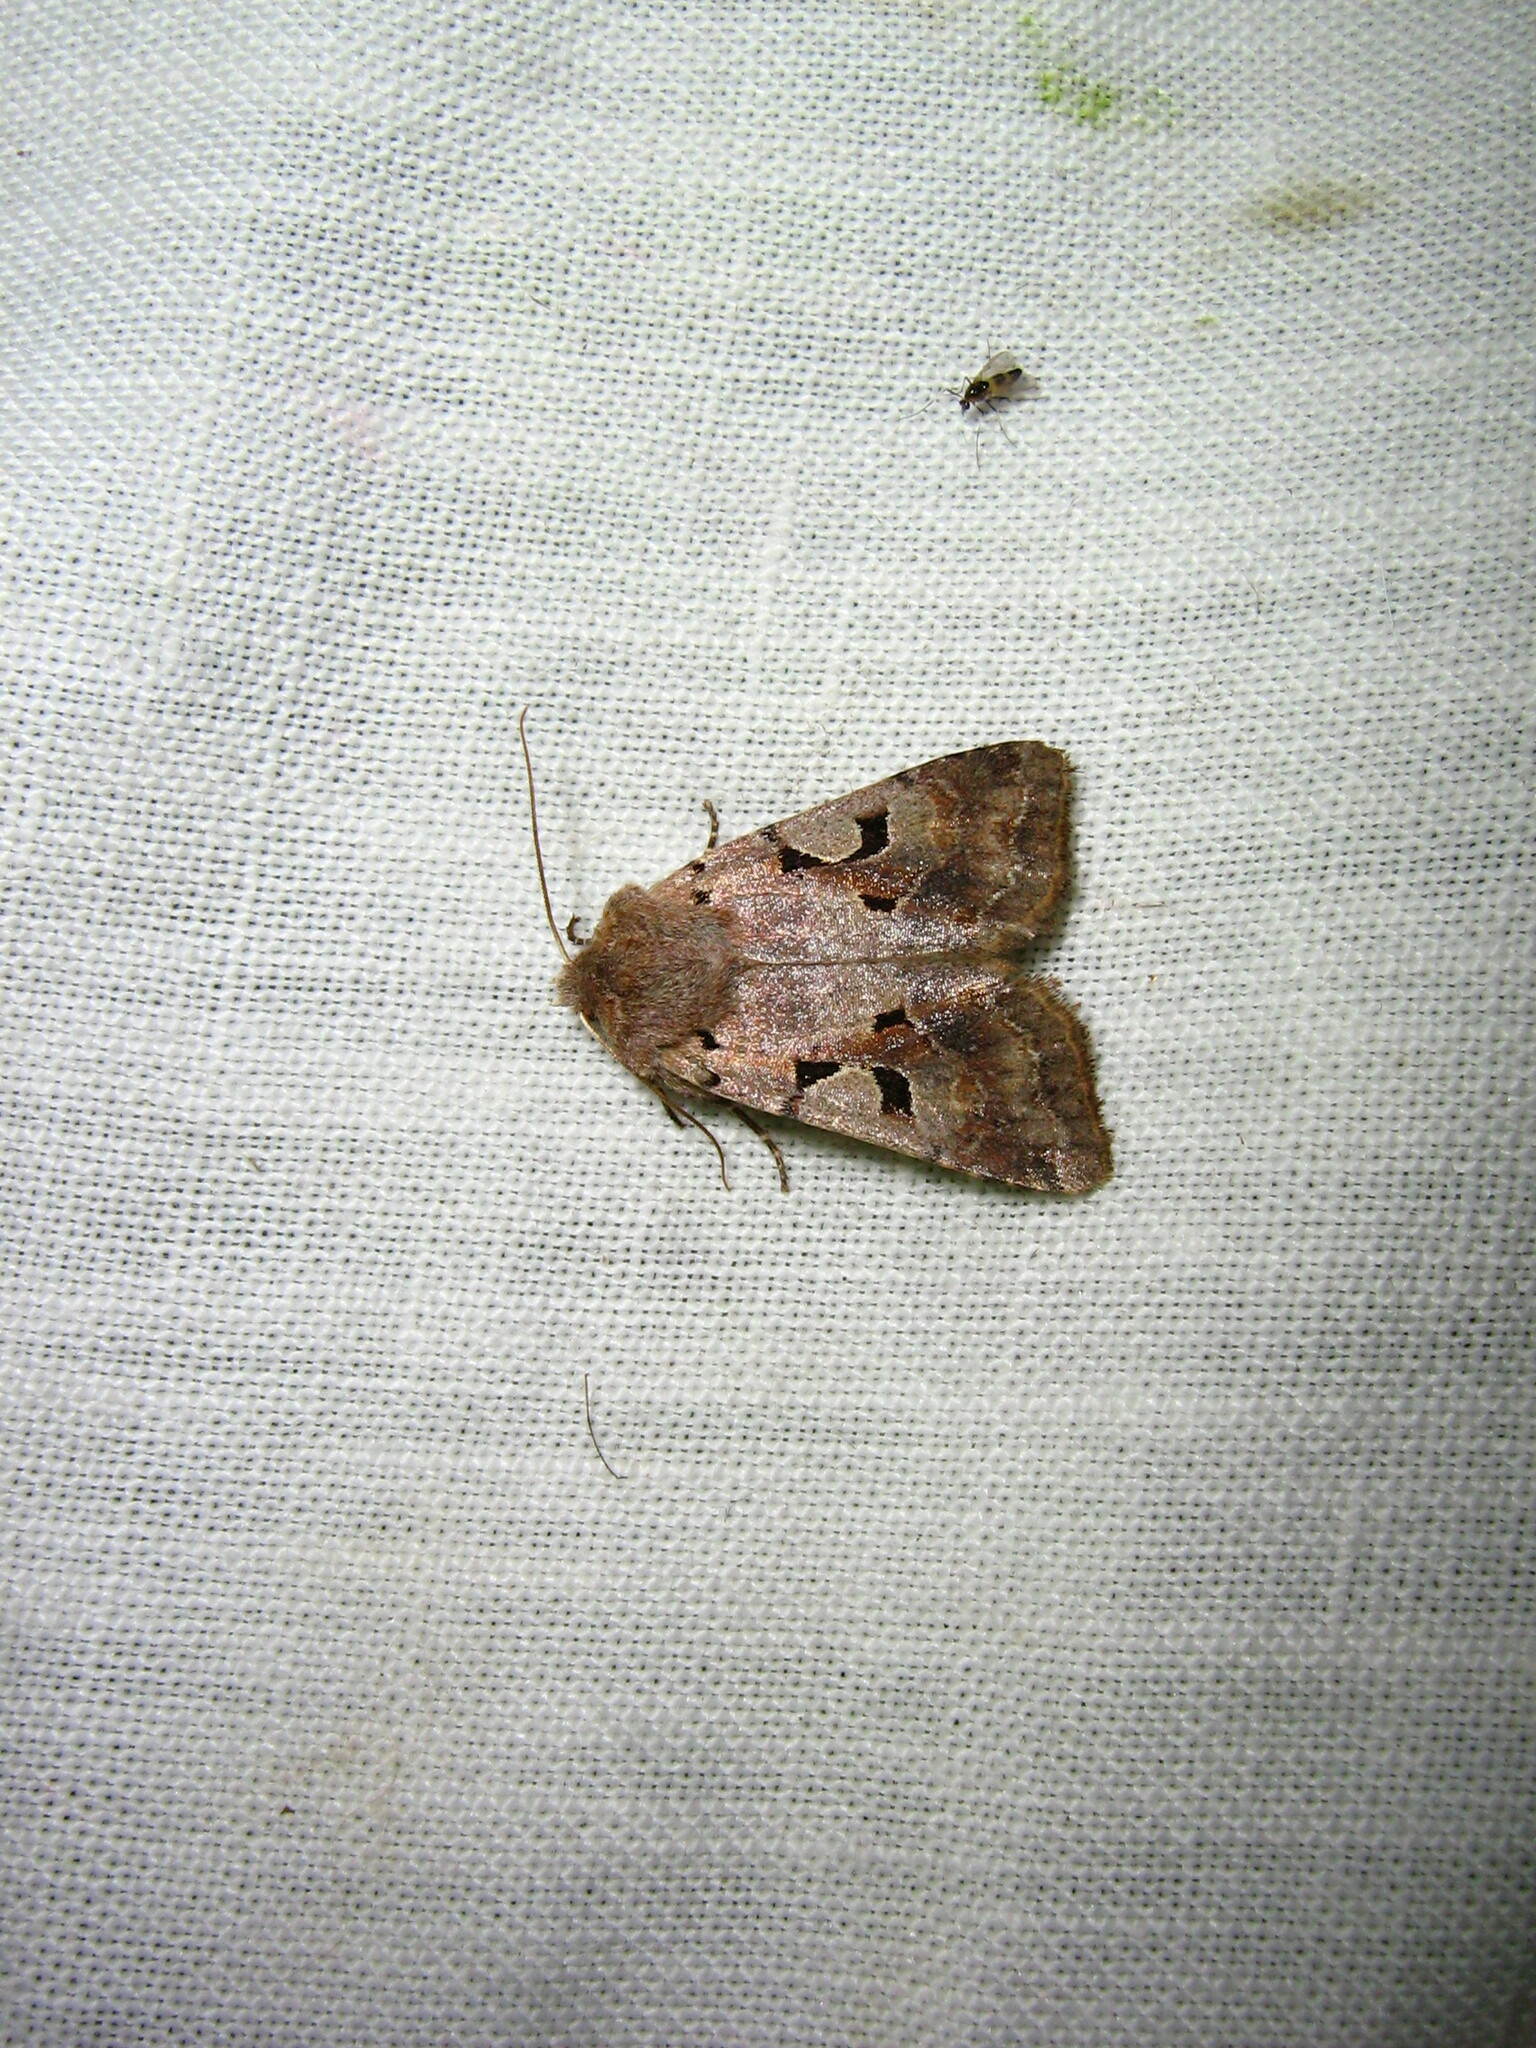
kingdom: Animalia
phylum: Arthropoda
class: Insecta
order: Lepidoptera
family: Noctuidae
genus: Orthosia
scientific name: Orthosia gothica
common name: Hebrew character
